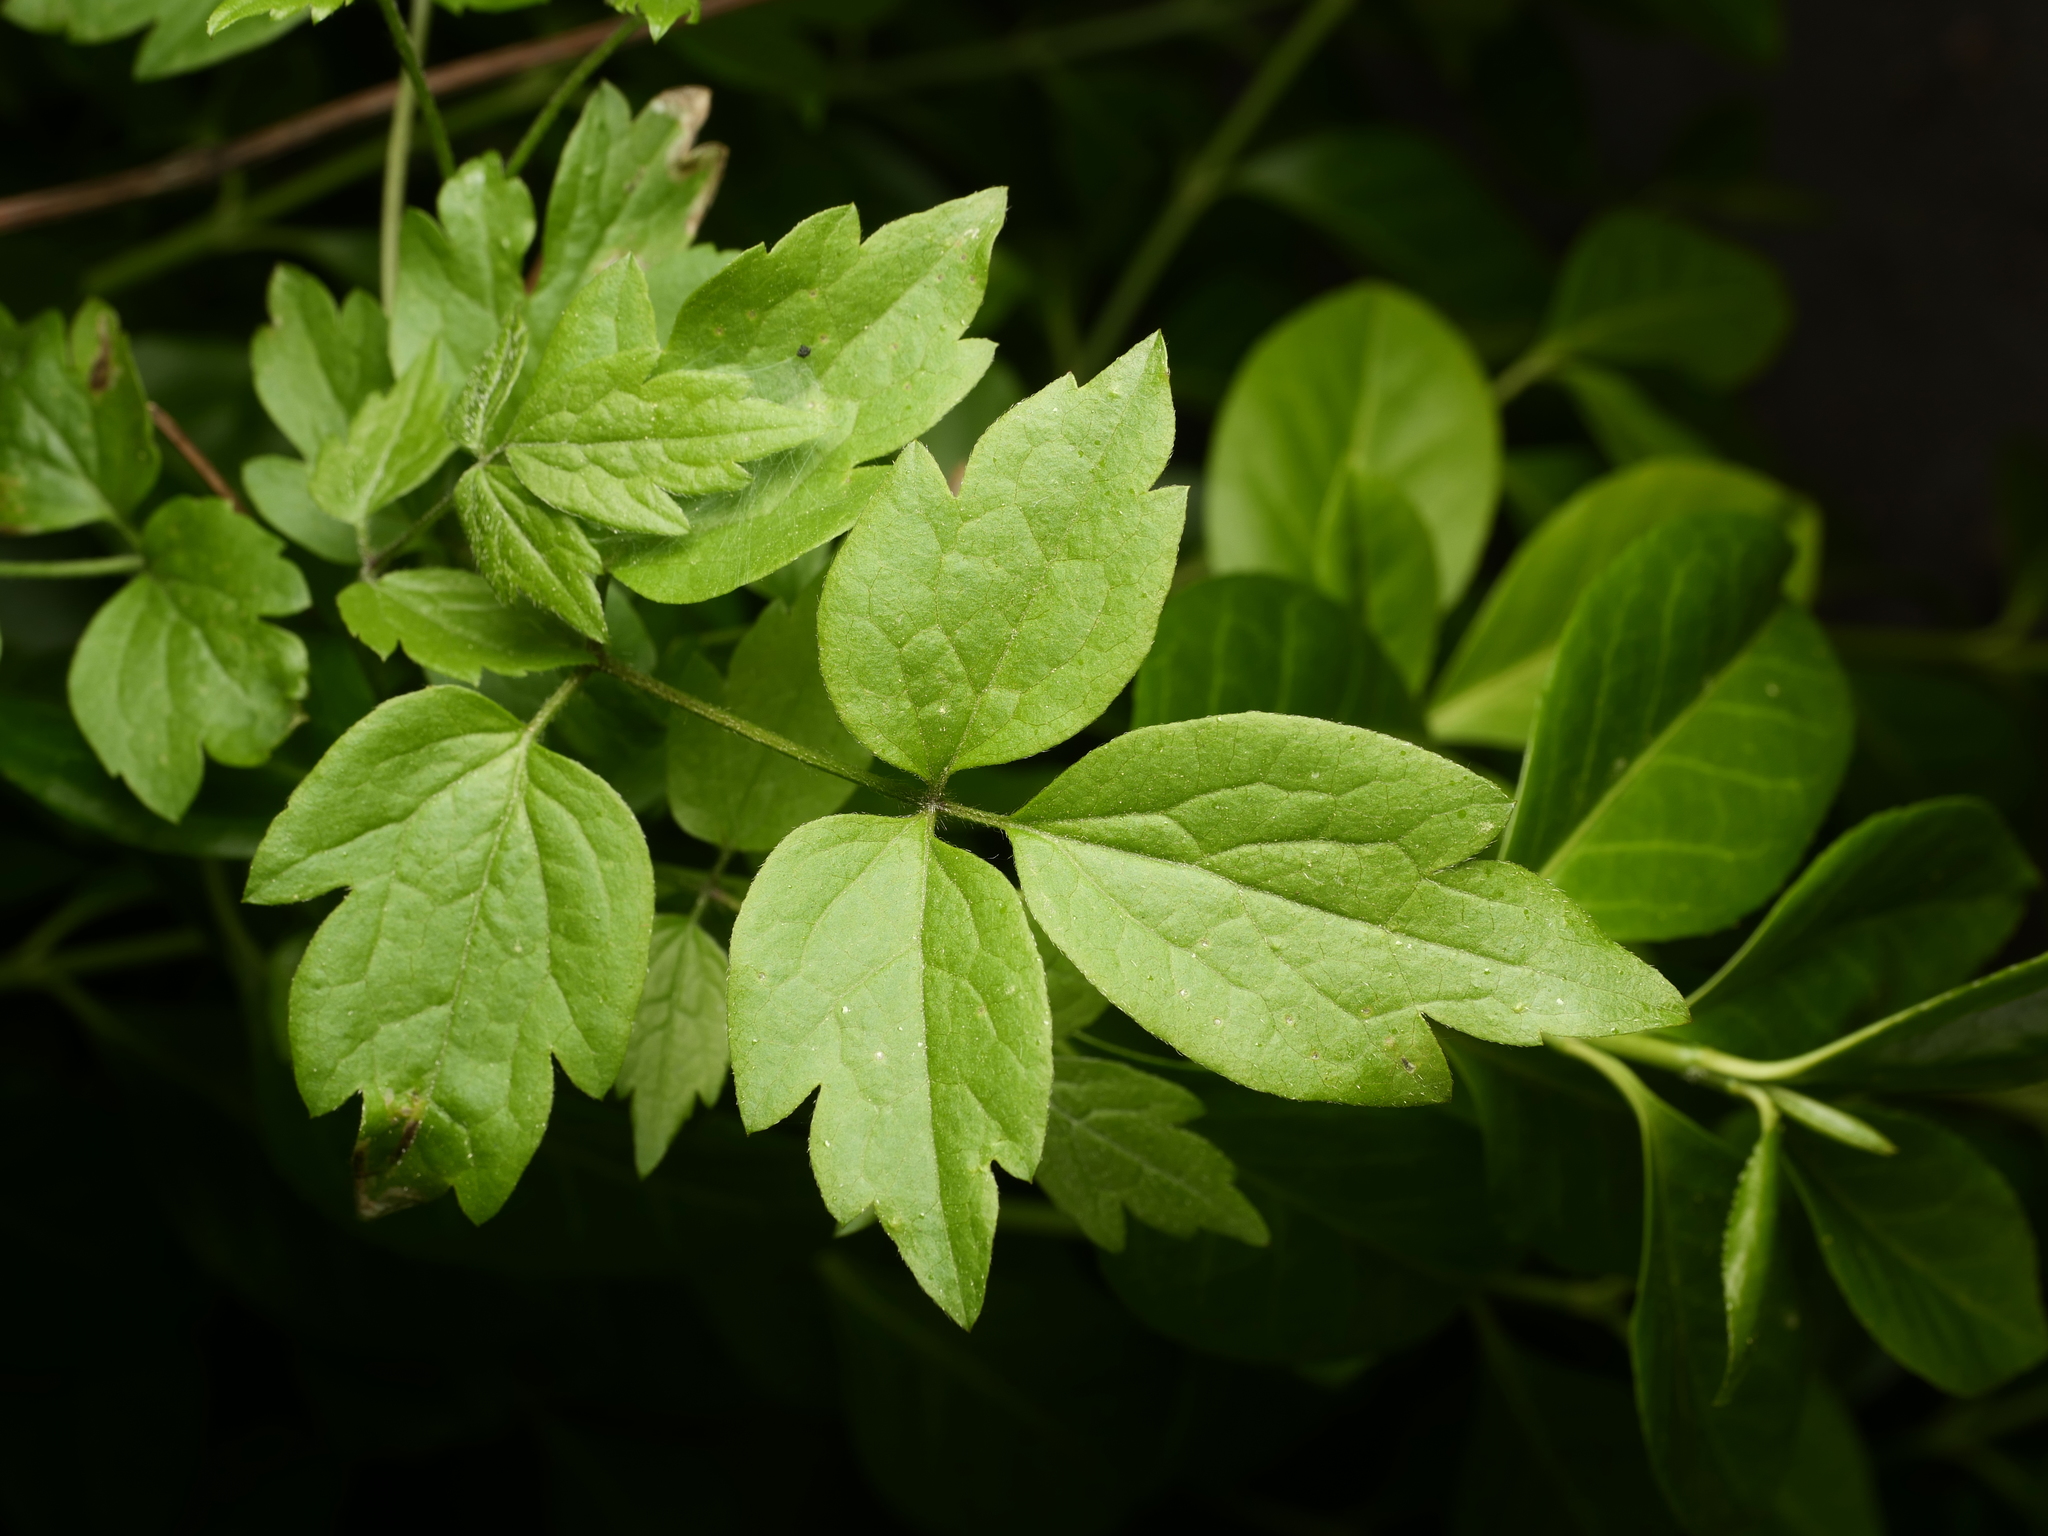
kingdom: Plantae
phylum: Tracheophyta
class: Magnoliopsida
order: Ranunculales
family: Ranunculaceae
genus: Clematis
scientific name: Clematis vitalba
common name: Evergreen clematis
